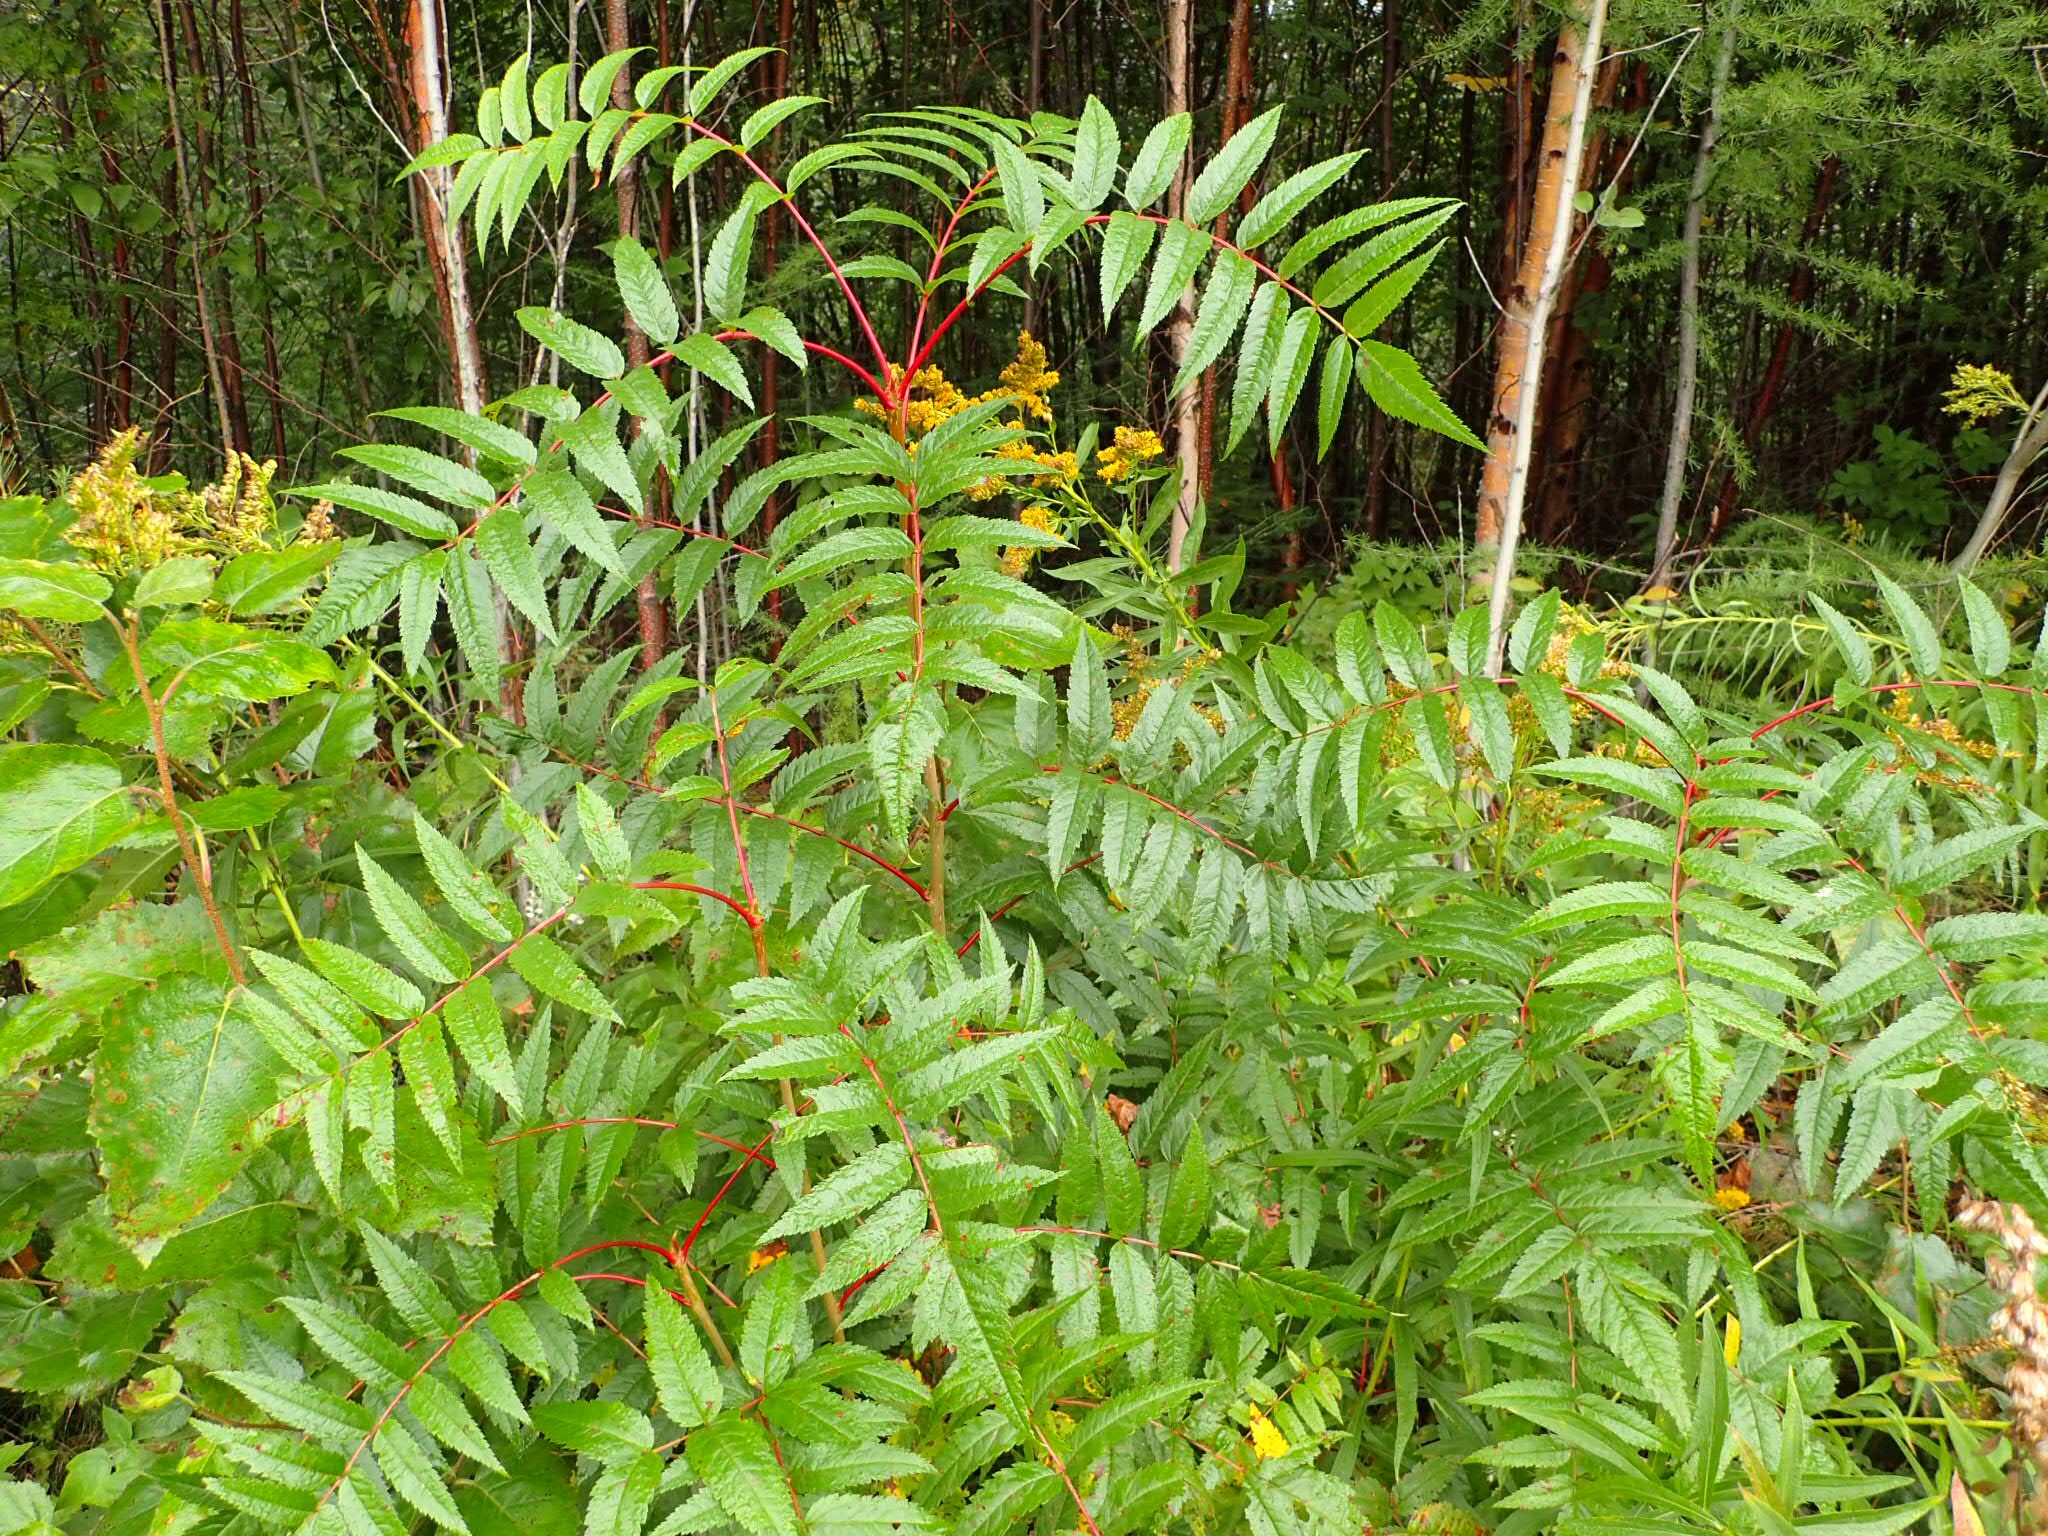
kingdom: Plantae
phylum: Tracheophyta
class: Magnoliopsida
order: Rosales
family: Rosaceae
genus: Sorbus
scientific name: Sorbus americana
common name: American mountain-ash
